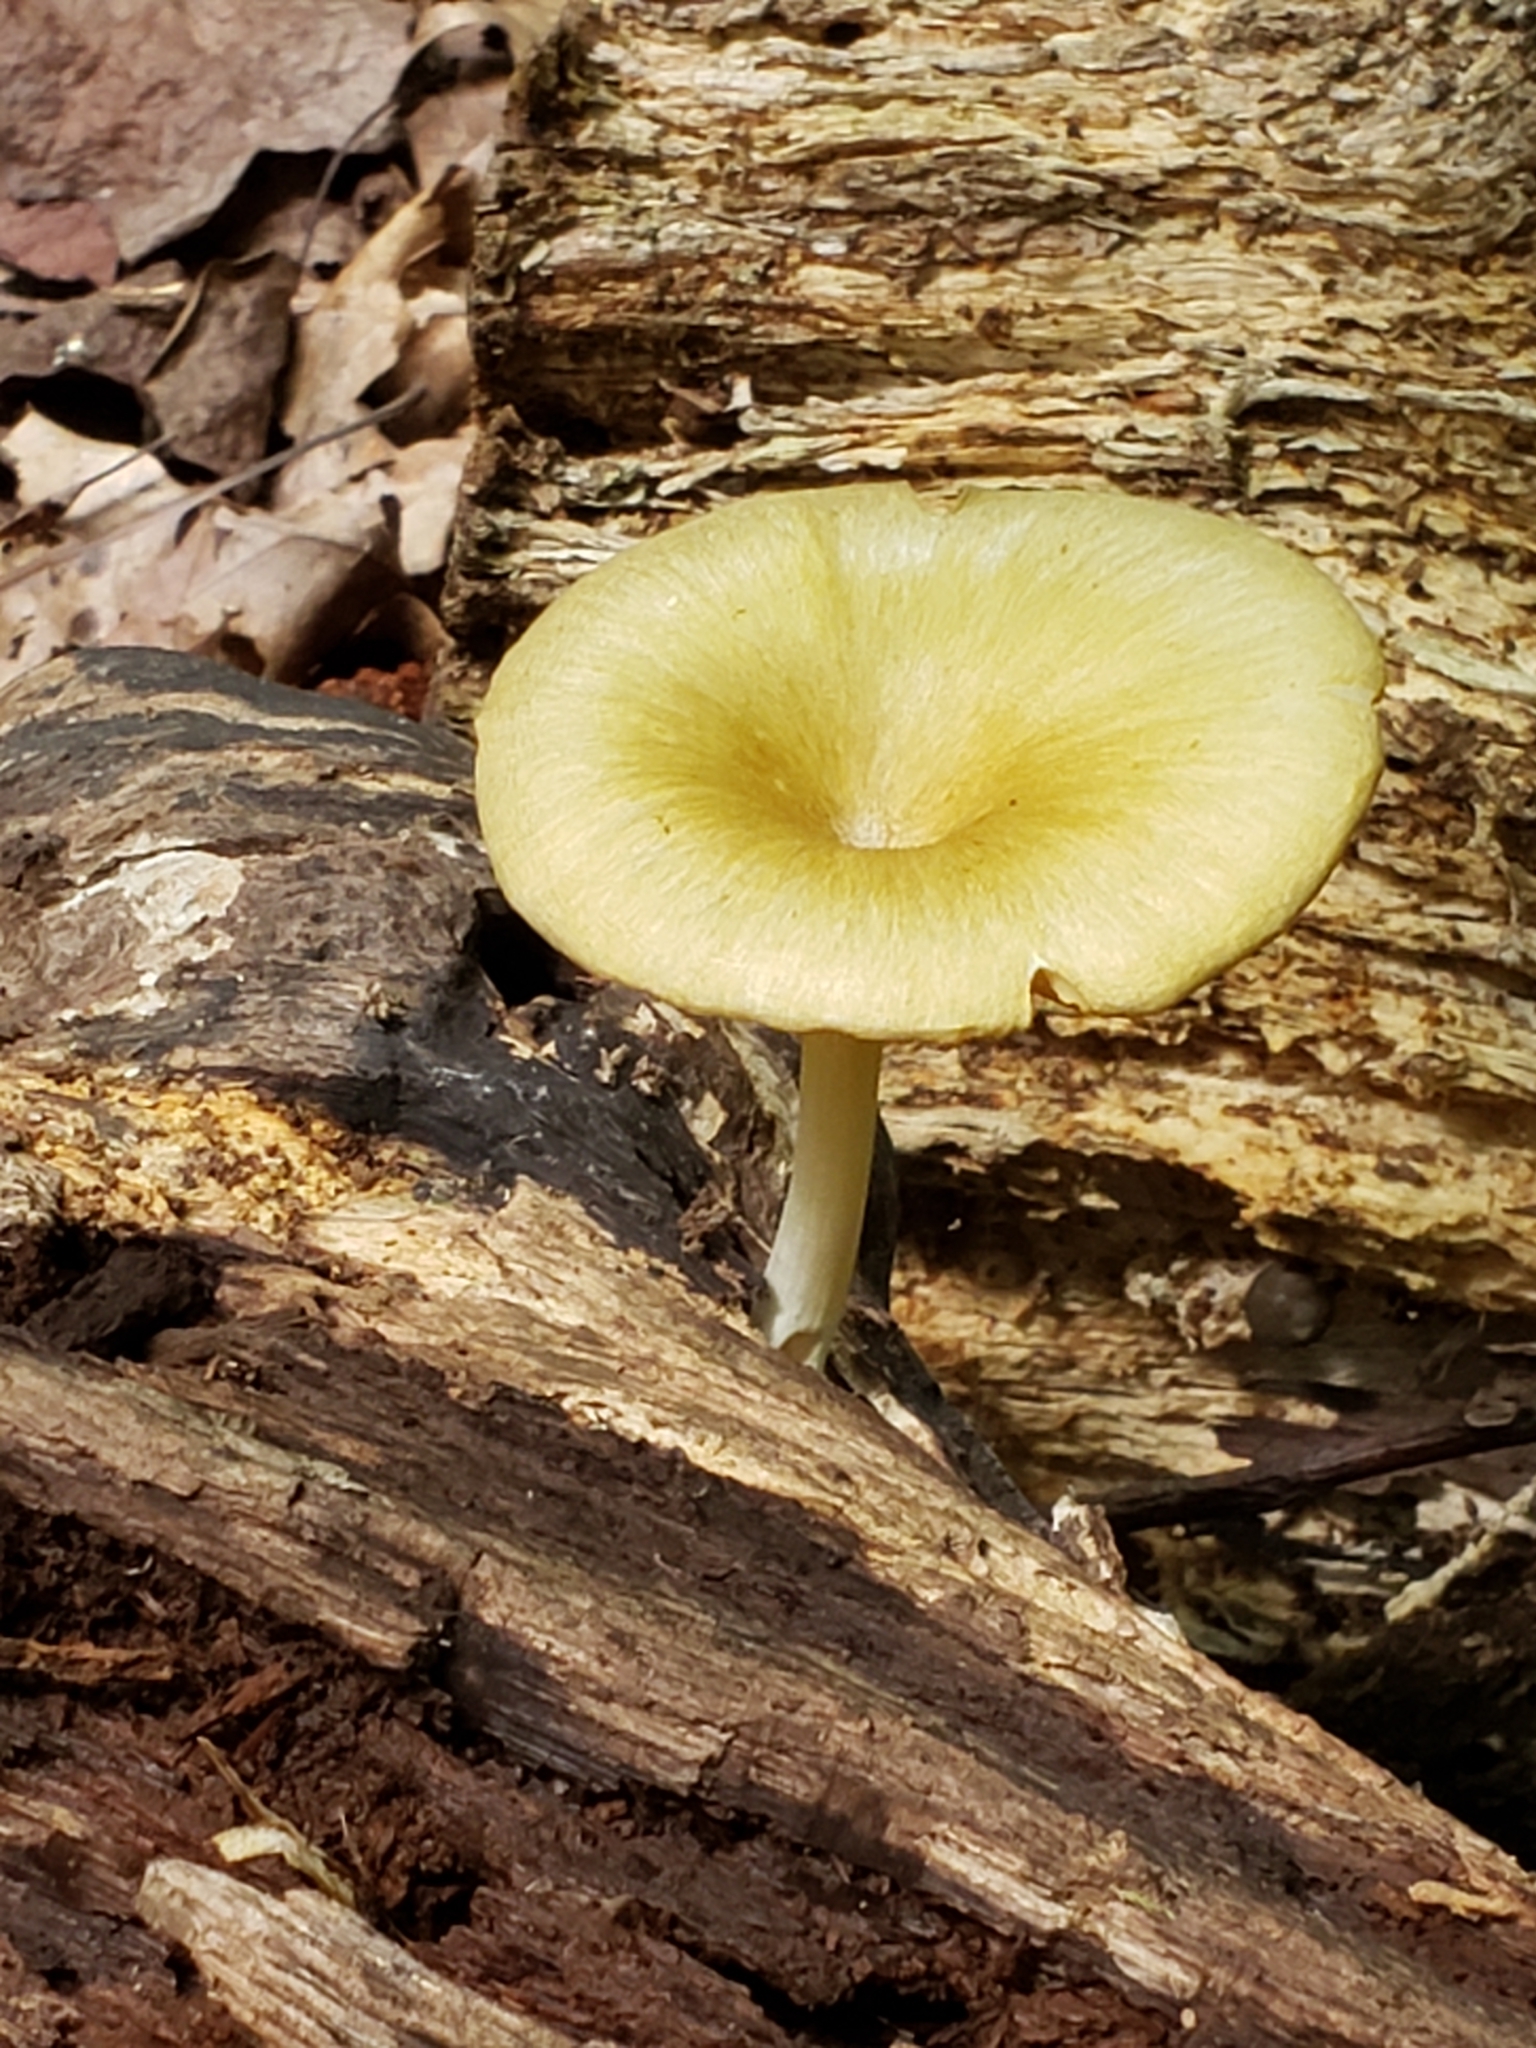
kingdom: Fungi
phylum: Basidiomycota
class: Agaricomycetes
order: Agaricales
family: Marasmiaceae
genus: Gerronema
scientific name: Gerronema strombodes
